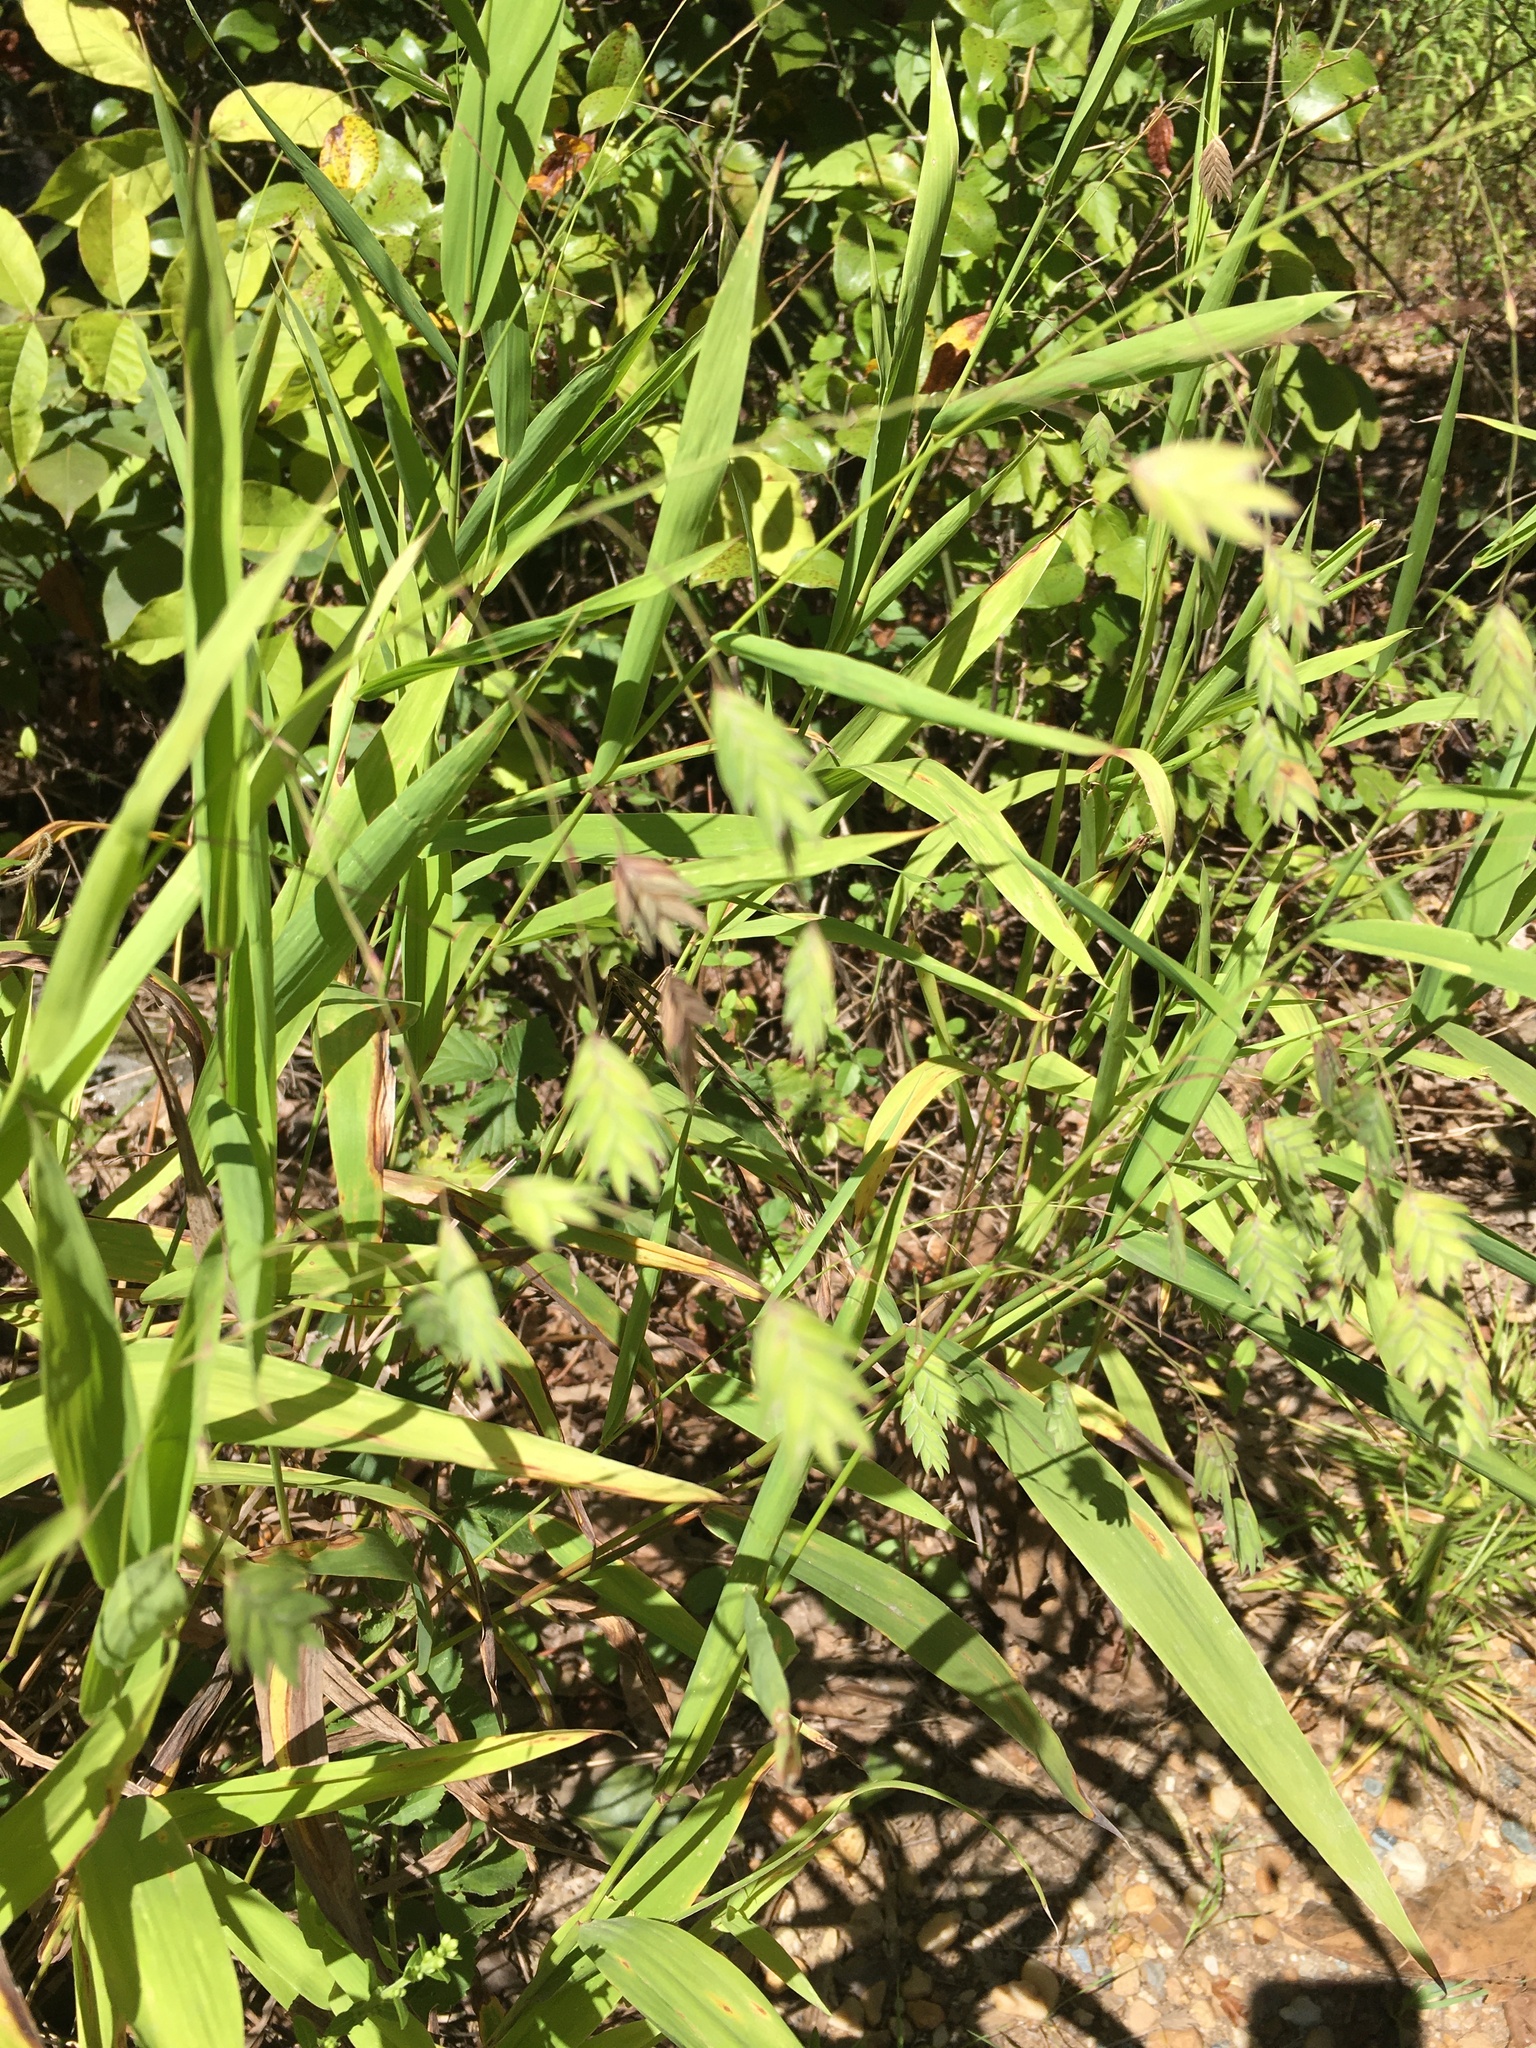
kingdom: Plantae
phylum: Tracheophyta
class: Liliopsida
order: Poales
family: Poaceae
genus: Chasmanthium
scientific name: Chasmanthium latifolium
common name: Broad-leaved chasmanthium
